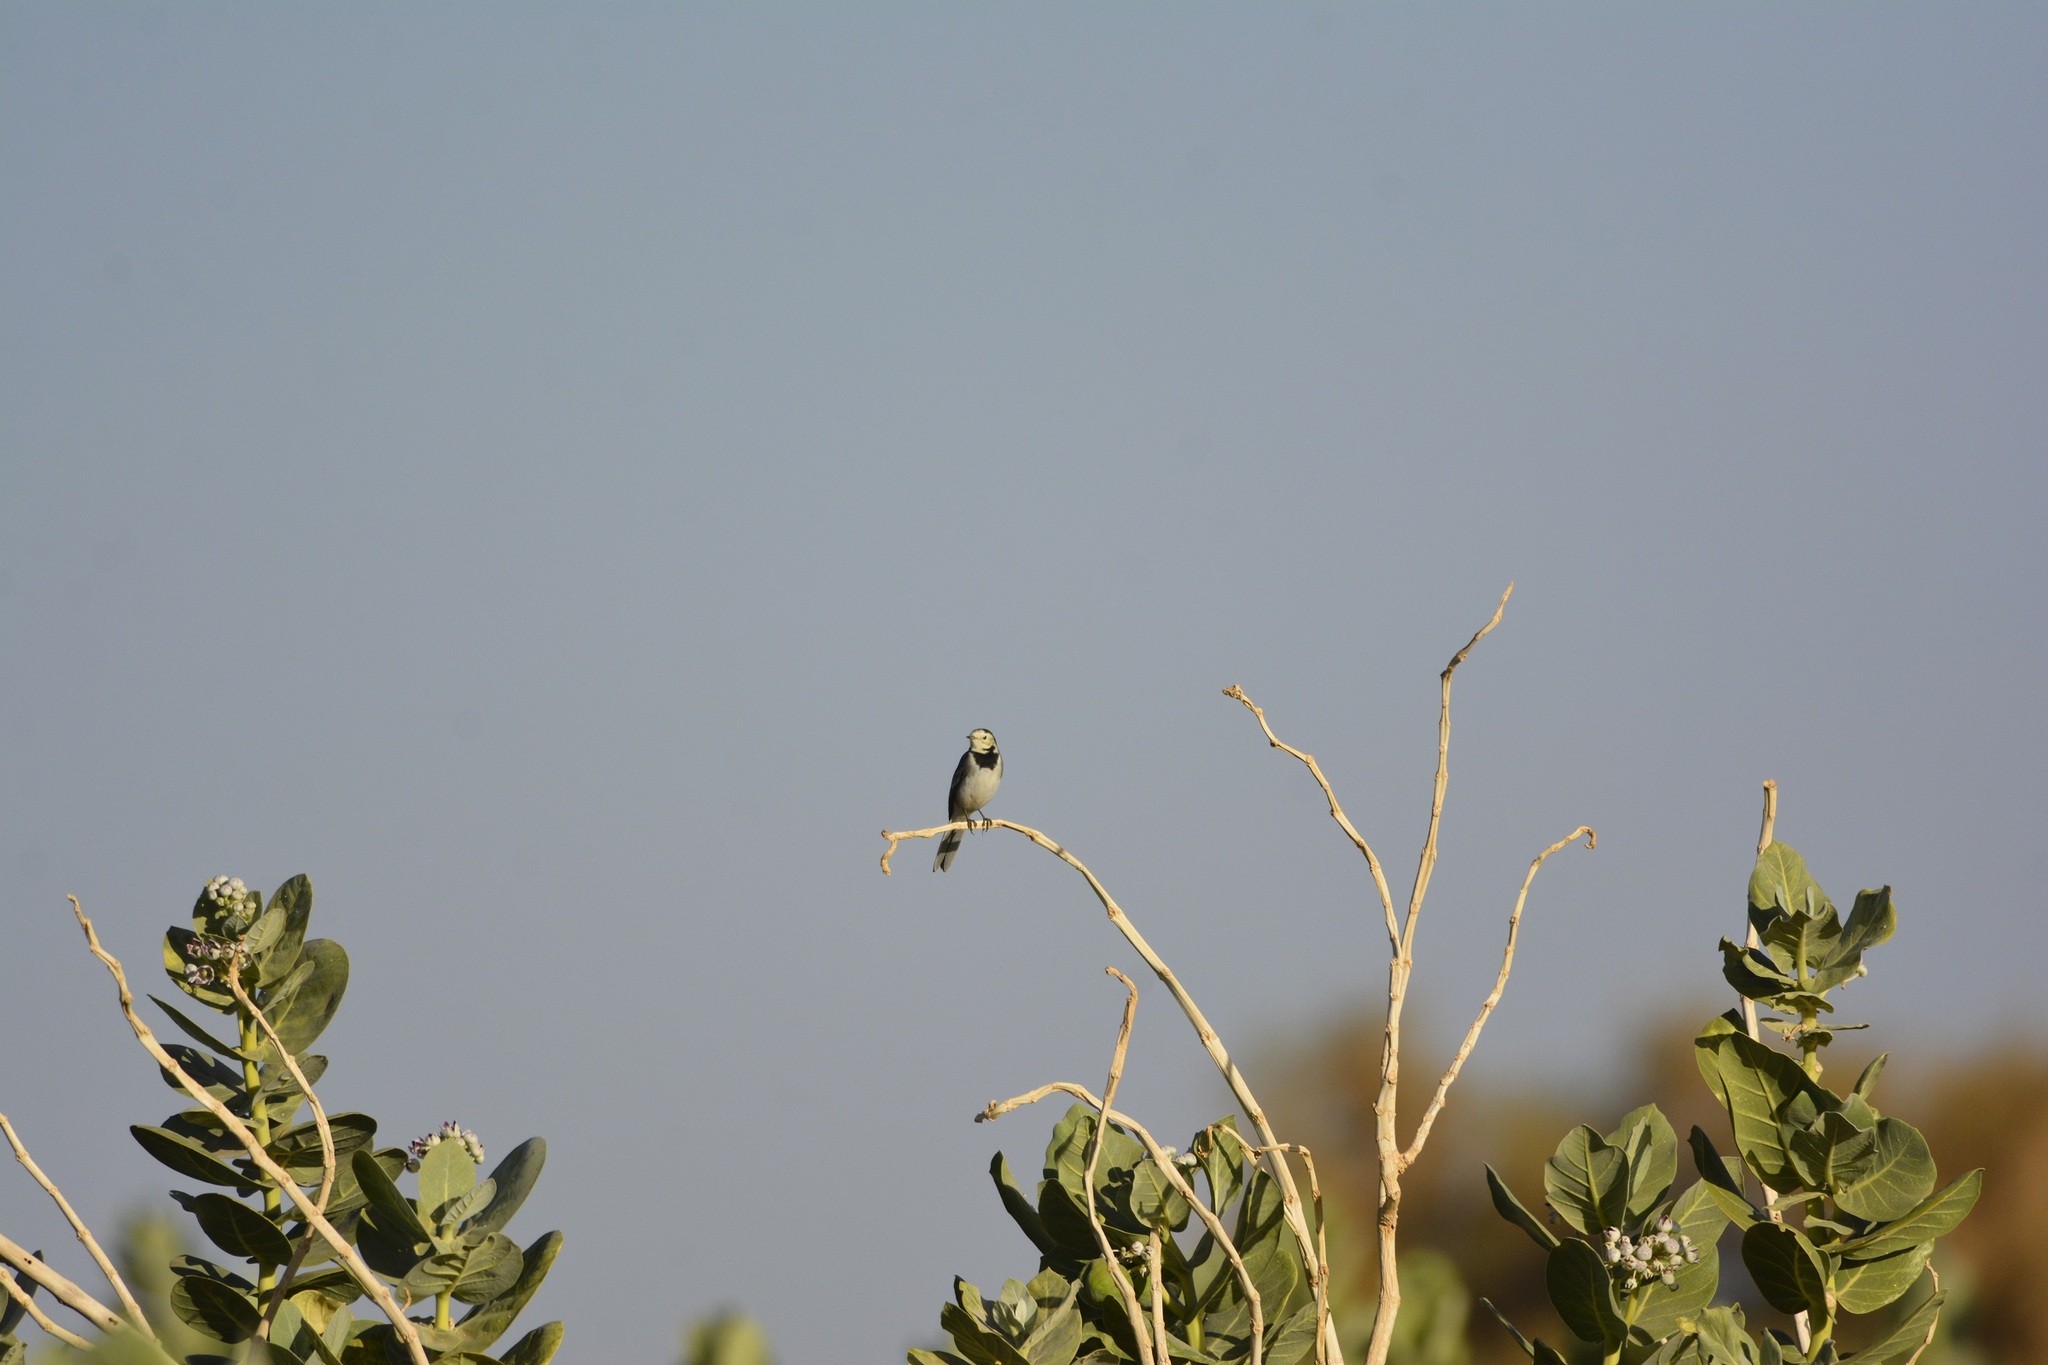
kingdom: Animalia
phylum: Chordata
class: Aves
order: Passeriformes
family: Motacillidae
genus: Motacilla
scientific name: Motacilla alba
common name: White wagtail
